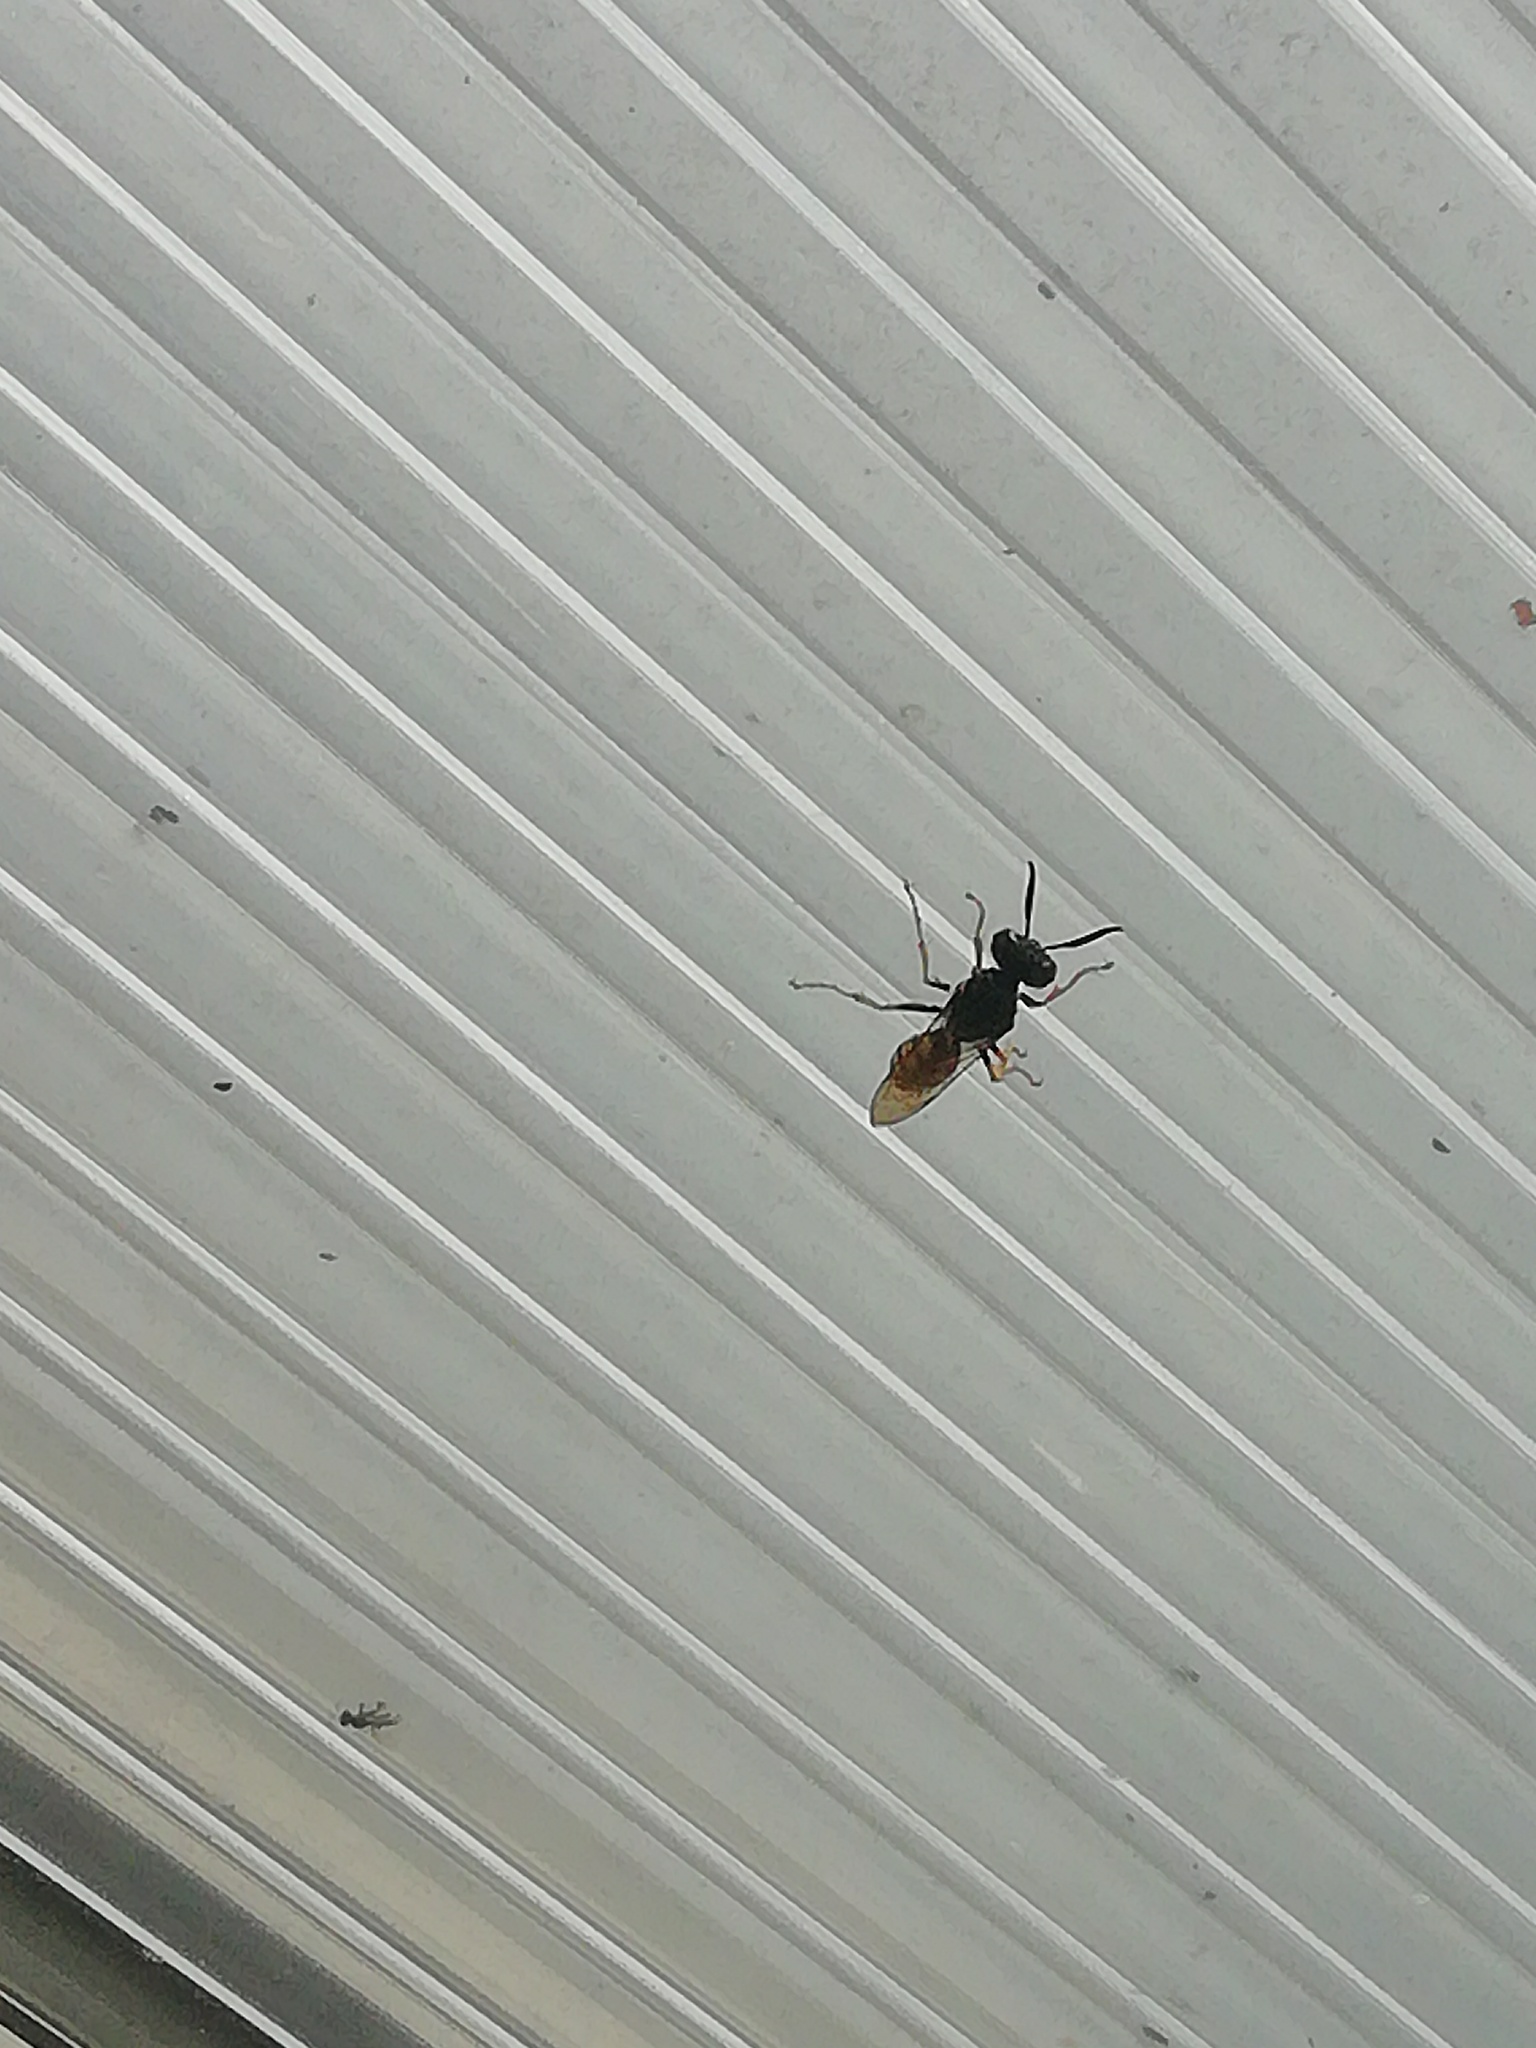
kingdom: Animalia
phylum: Arthropoda
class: Insecta
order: Hymenoptera
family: Crabronidae
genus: Philanthus
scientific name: Philanthus triangulum
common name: Bee wolf
